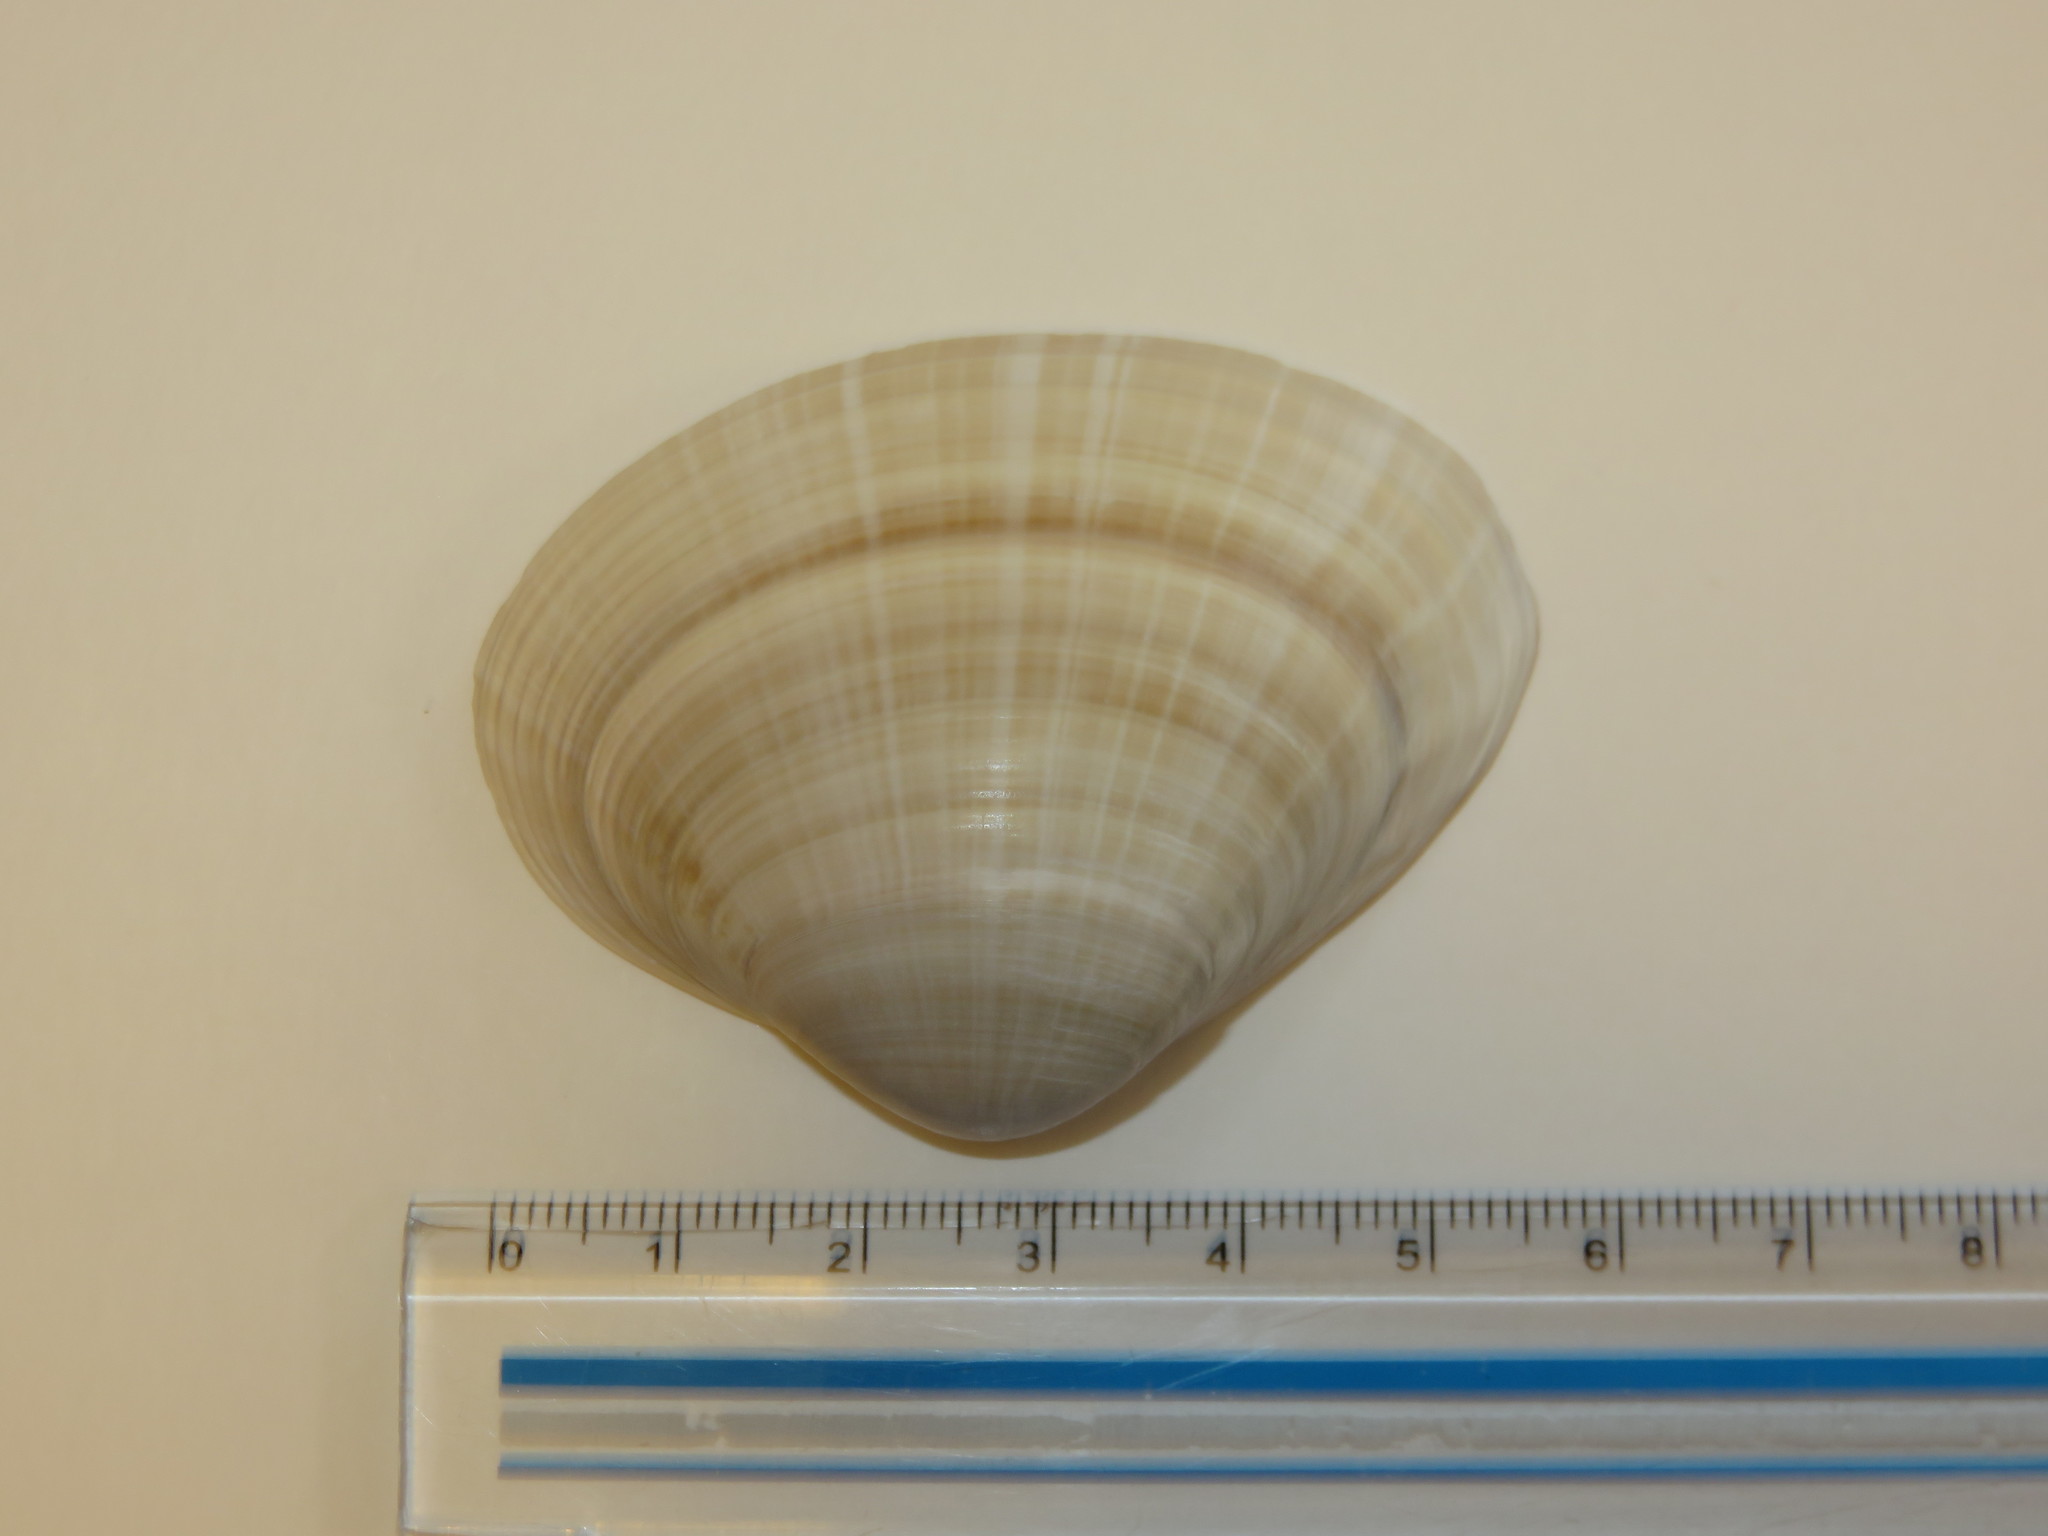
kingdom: Animalia
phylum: Mollusca
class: Bivalvia
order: Venerida
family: Mactridae
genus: Mactra
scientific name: Mactra chinensis
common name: Chinese surf clam
